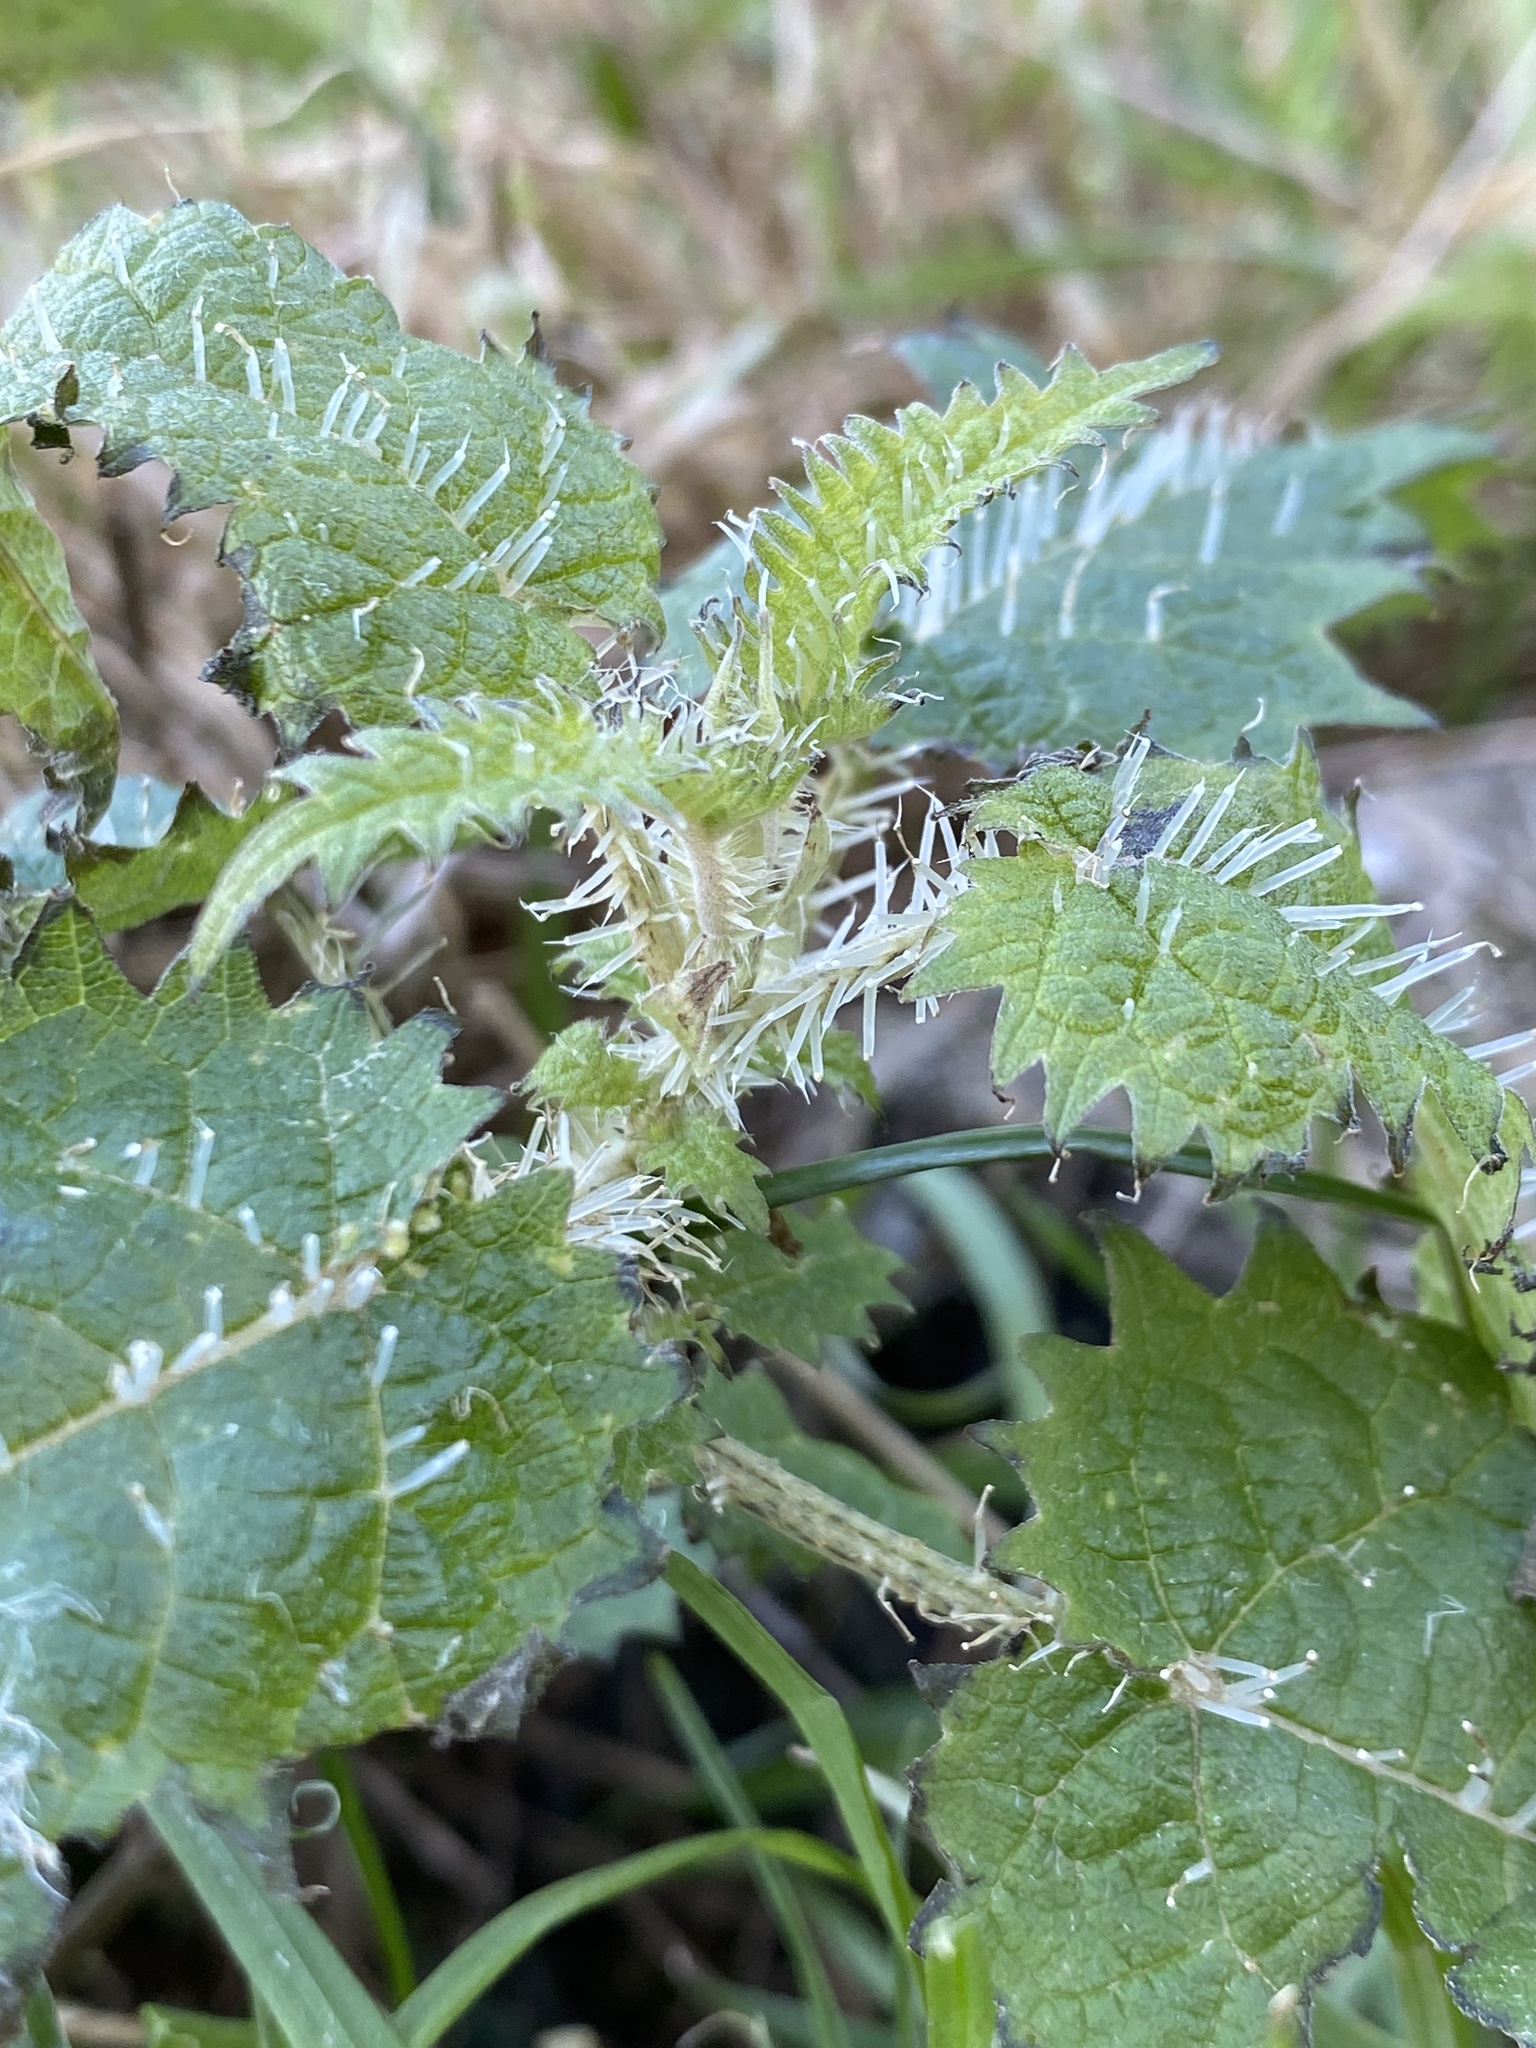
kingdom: Plantae
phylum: Tracheophyta
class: Magnoliopsida
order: Rosales
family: Urticaceae
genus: Urtica
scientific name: Urtica ferox
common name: Tree nettle
